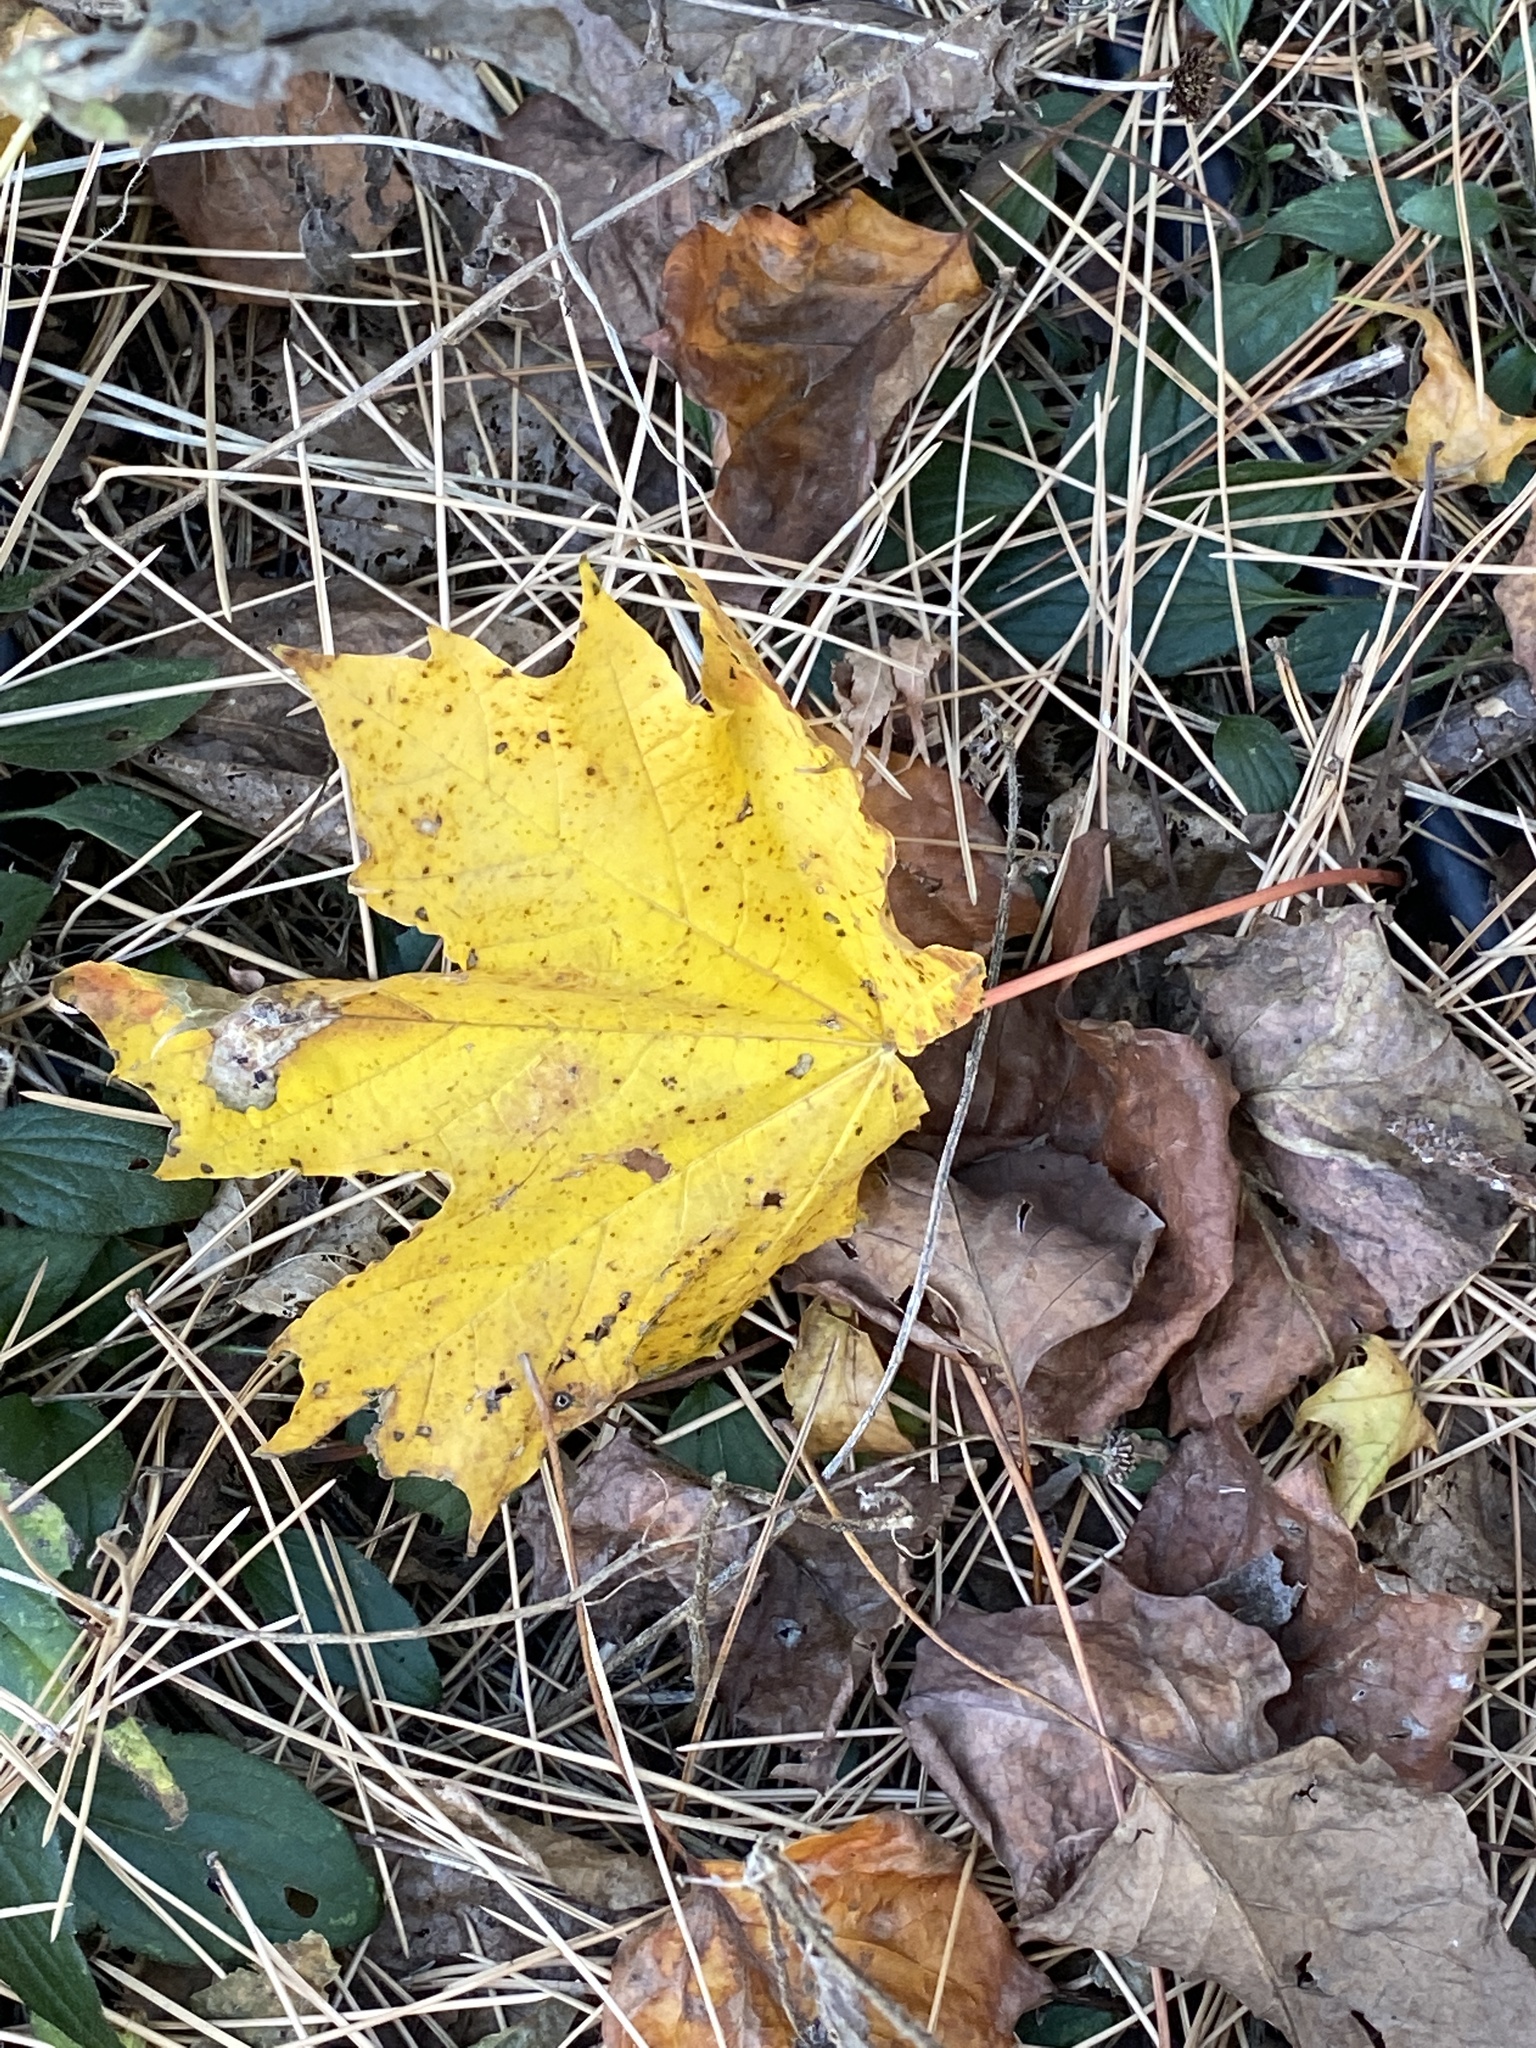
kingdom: Plantae
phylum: Tracheophyta
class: Magnoliopsida
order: Sapindales
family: Sapindaceae
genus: Acer
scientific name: Acer platanoides
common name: Norway maple
